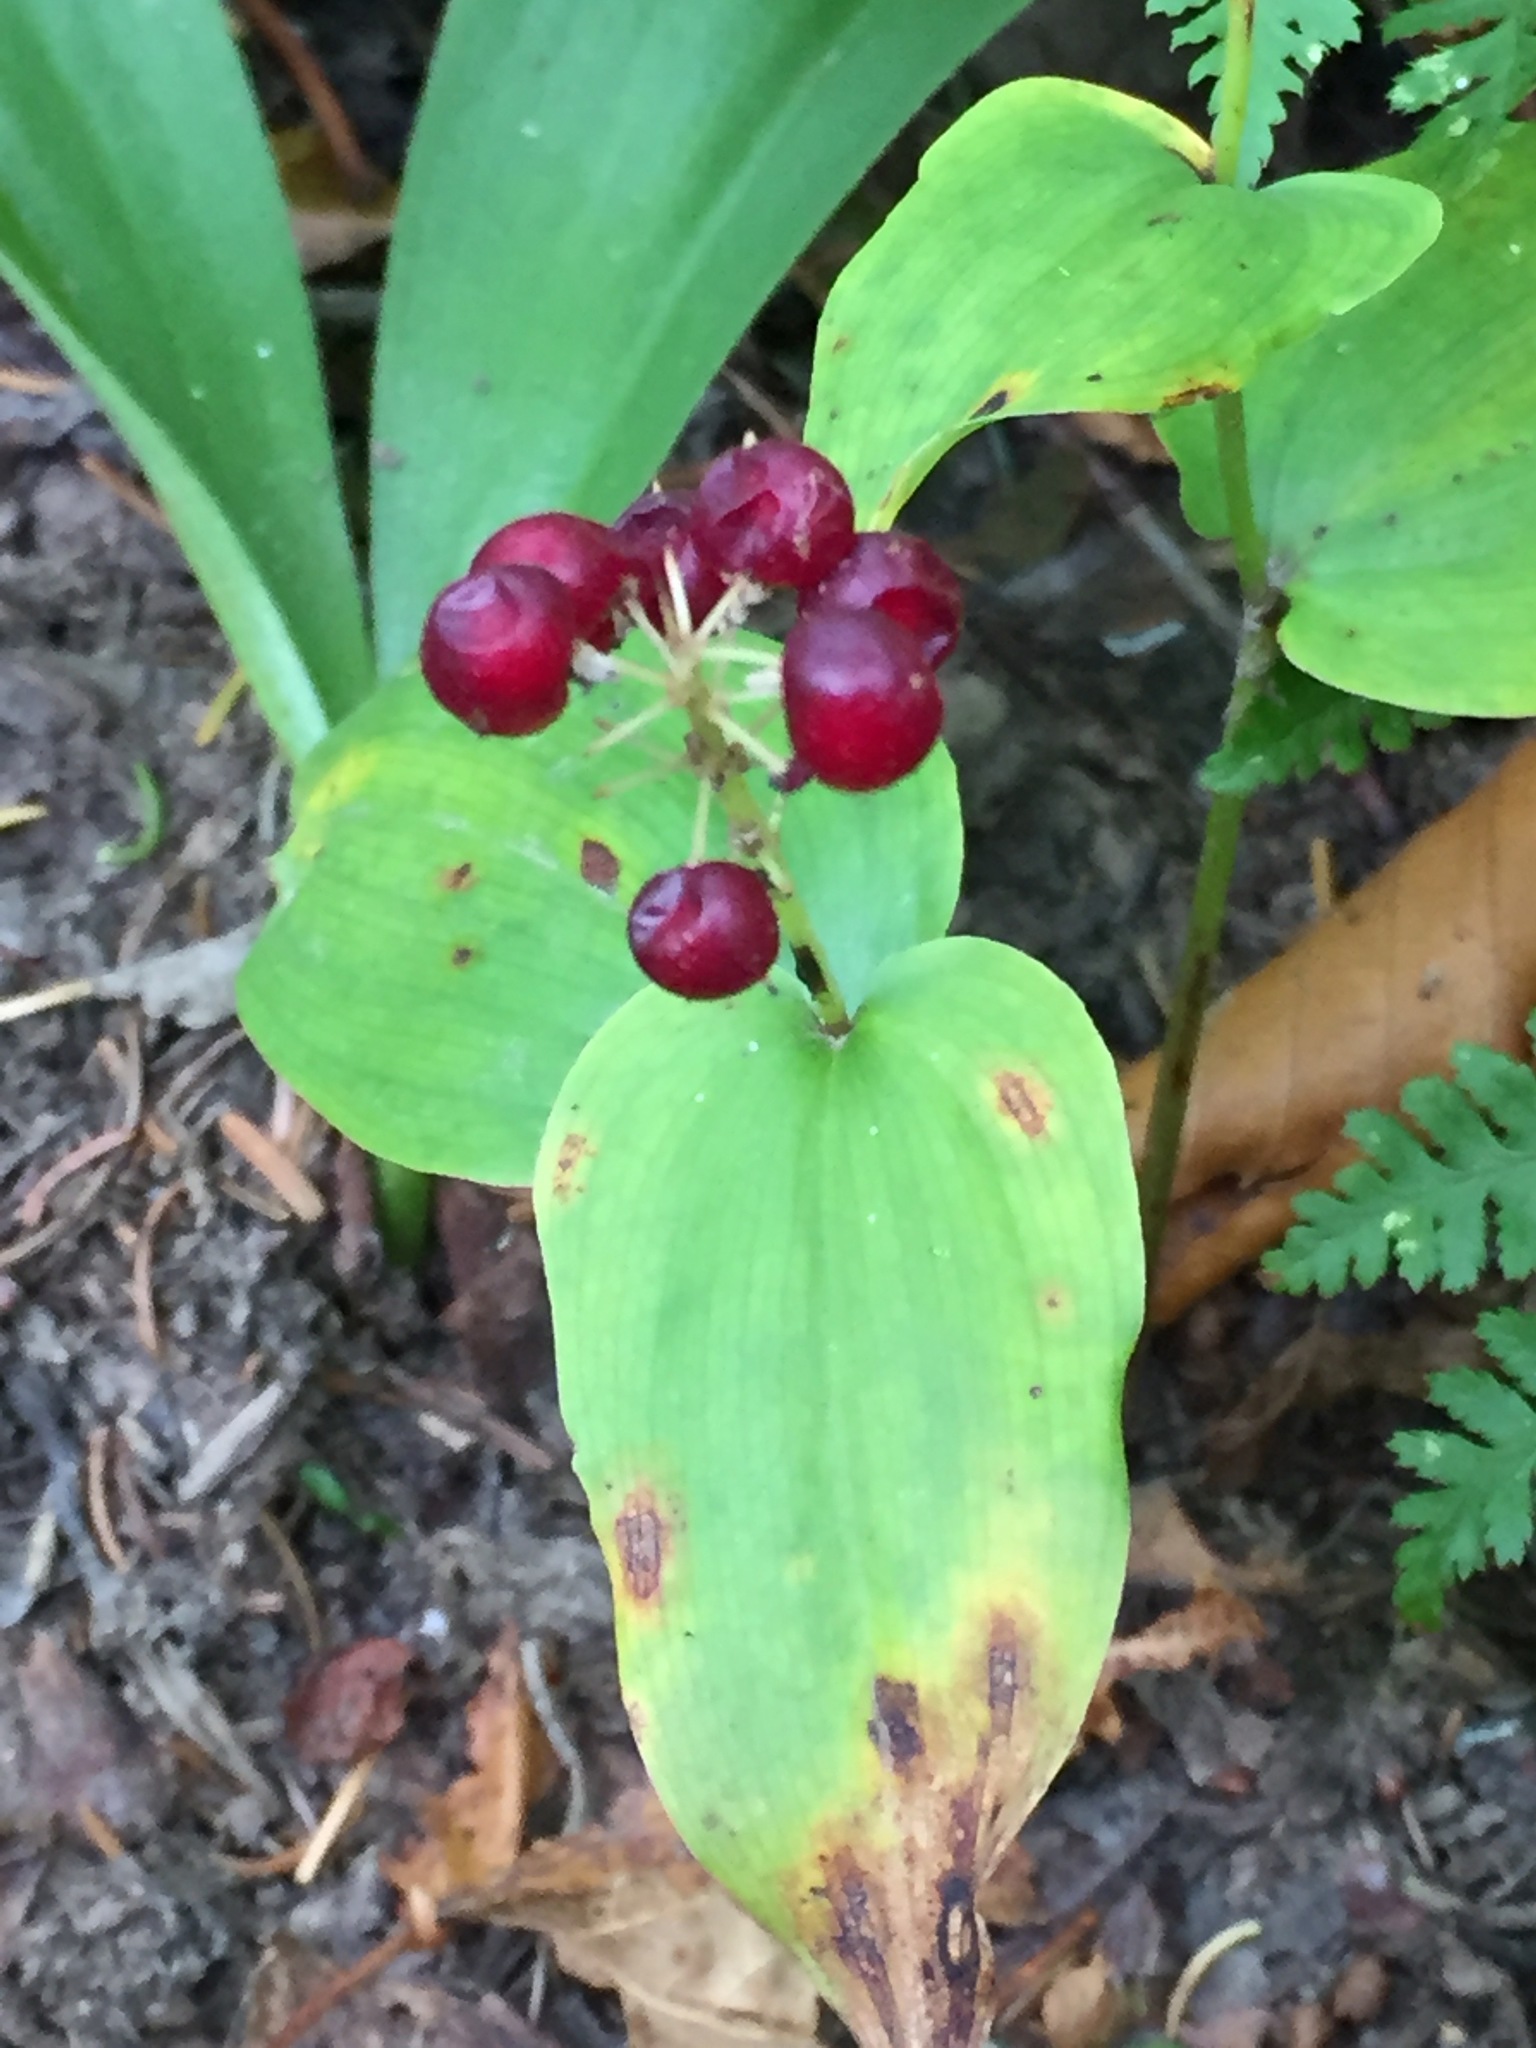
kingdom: Plantae
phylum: Tracheophyta
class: Liliopsida
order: Asparagales
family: Asparagaceae
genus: Maianthemum
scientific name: Maianthemum canadense
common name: False lily-of-the-valley
